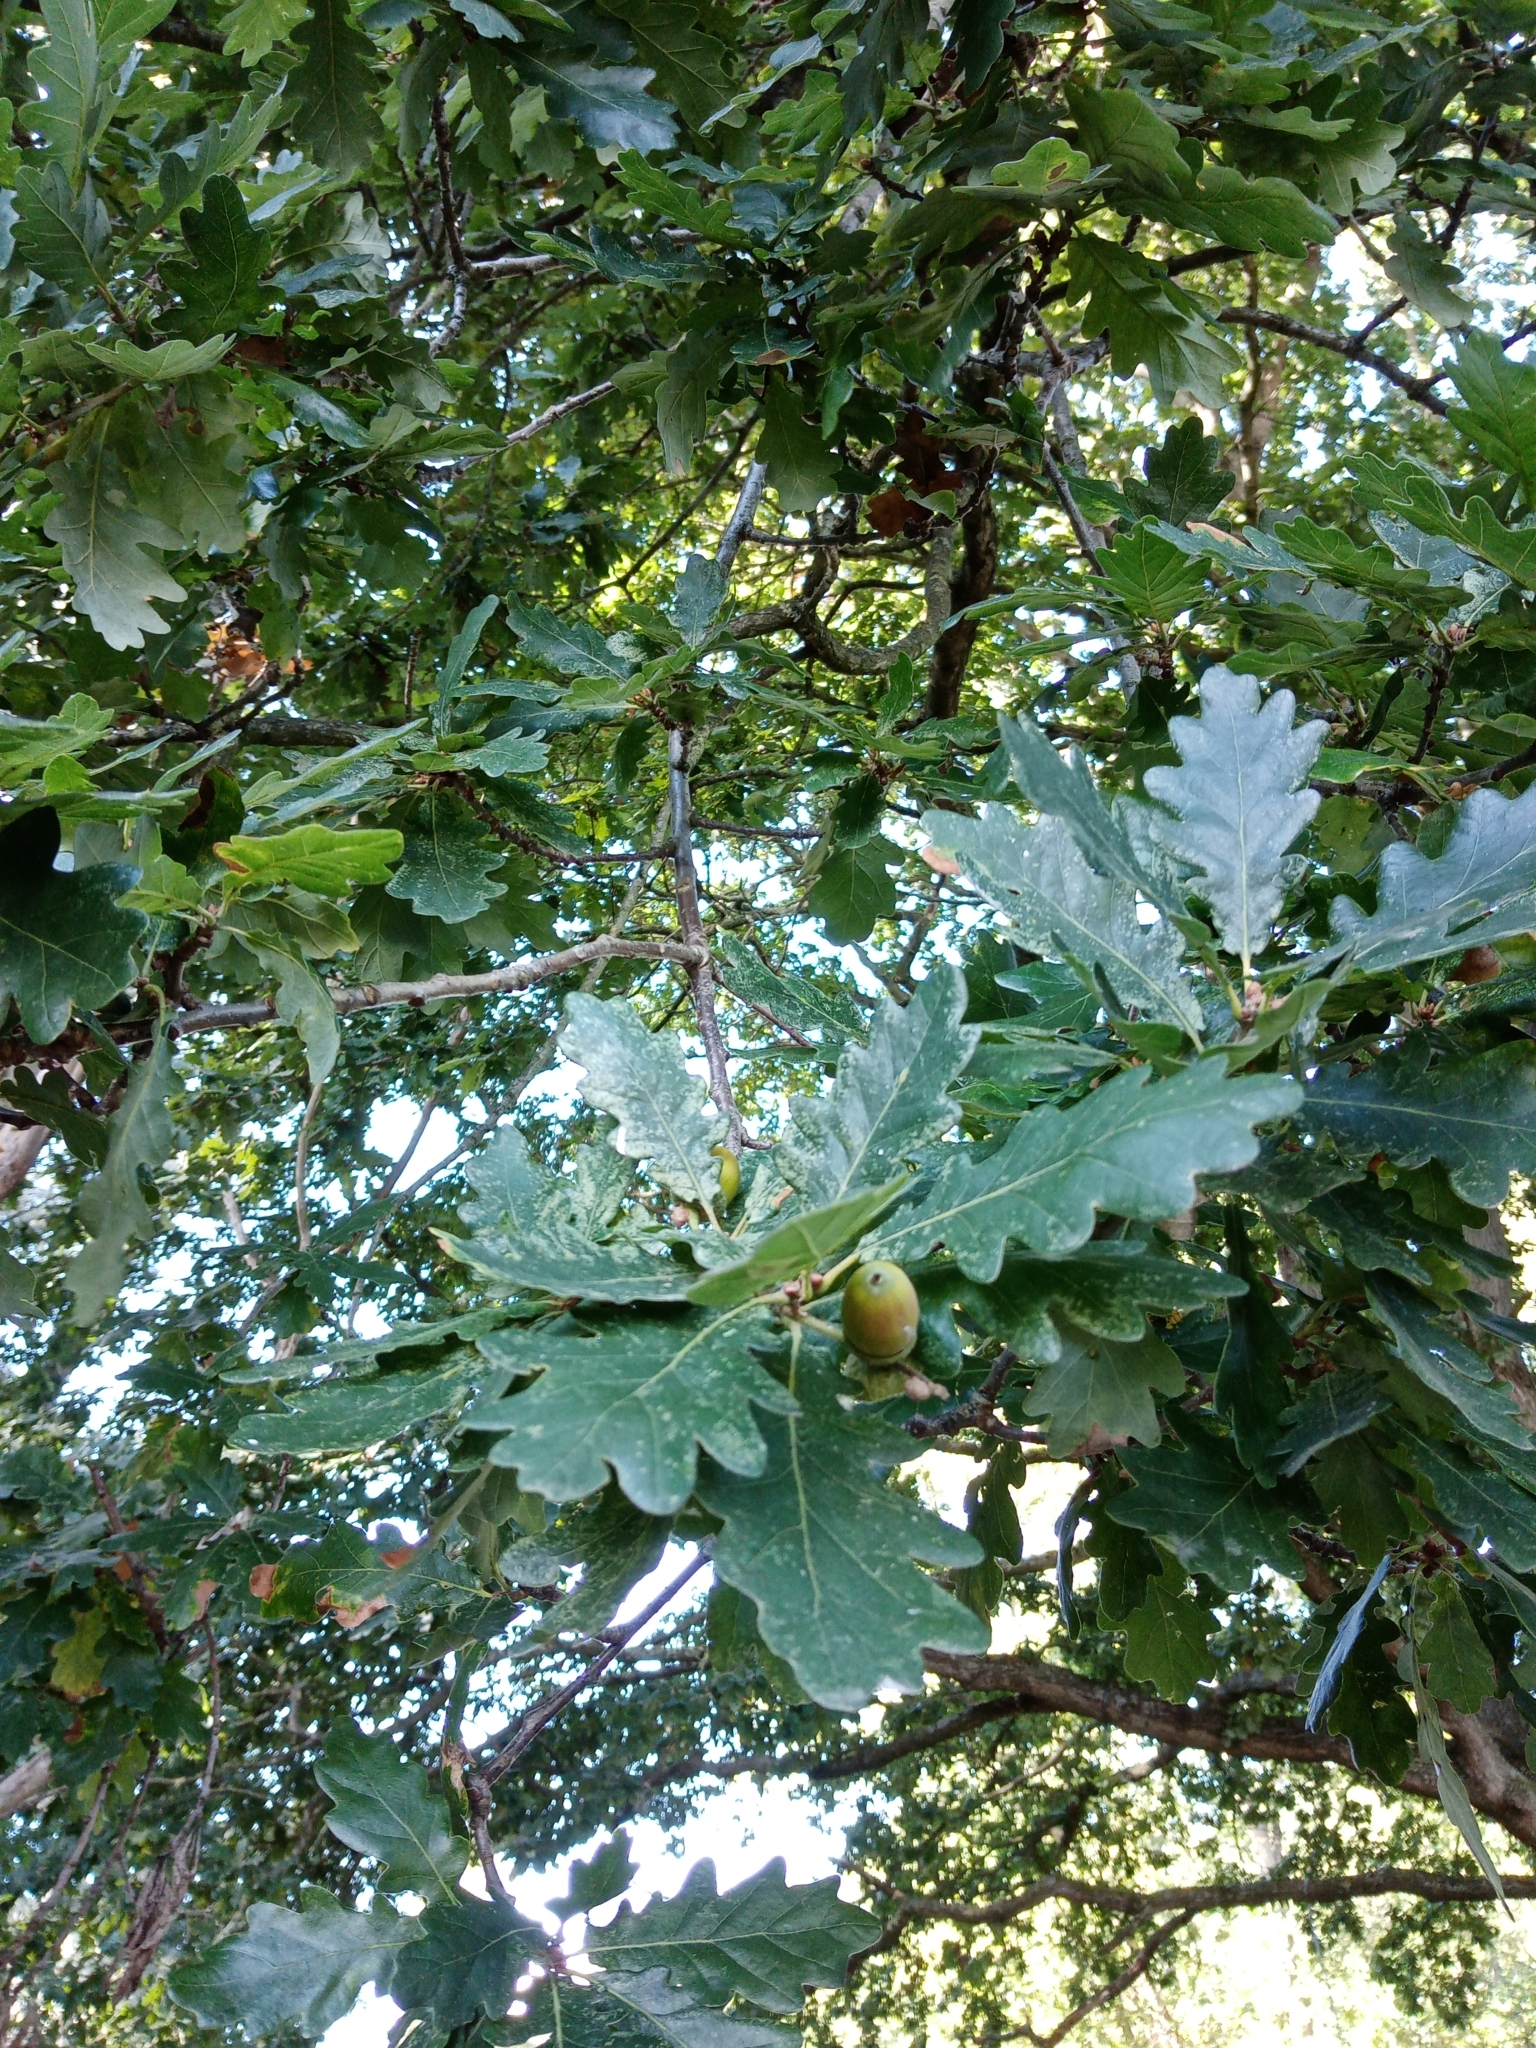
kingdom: Plantae
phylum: Tracheophyta
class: Magnoliopsida
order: Fagales
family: Fagaceae
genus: Quercus
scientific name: Quercus robur
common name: Pedunculate oak
